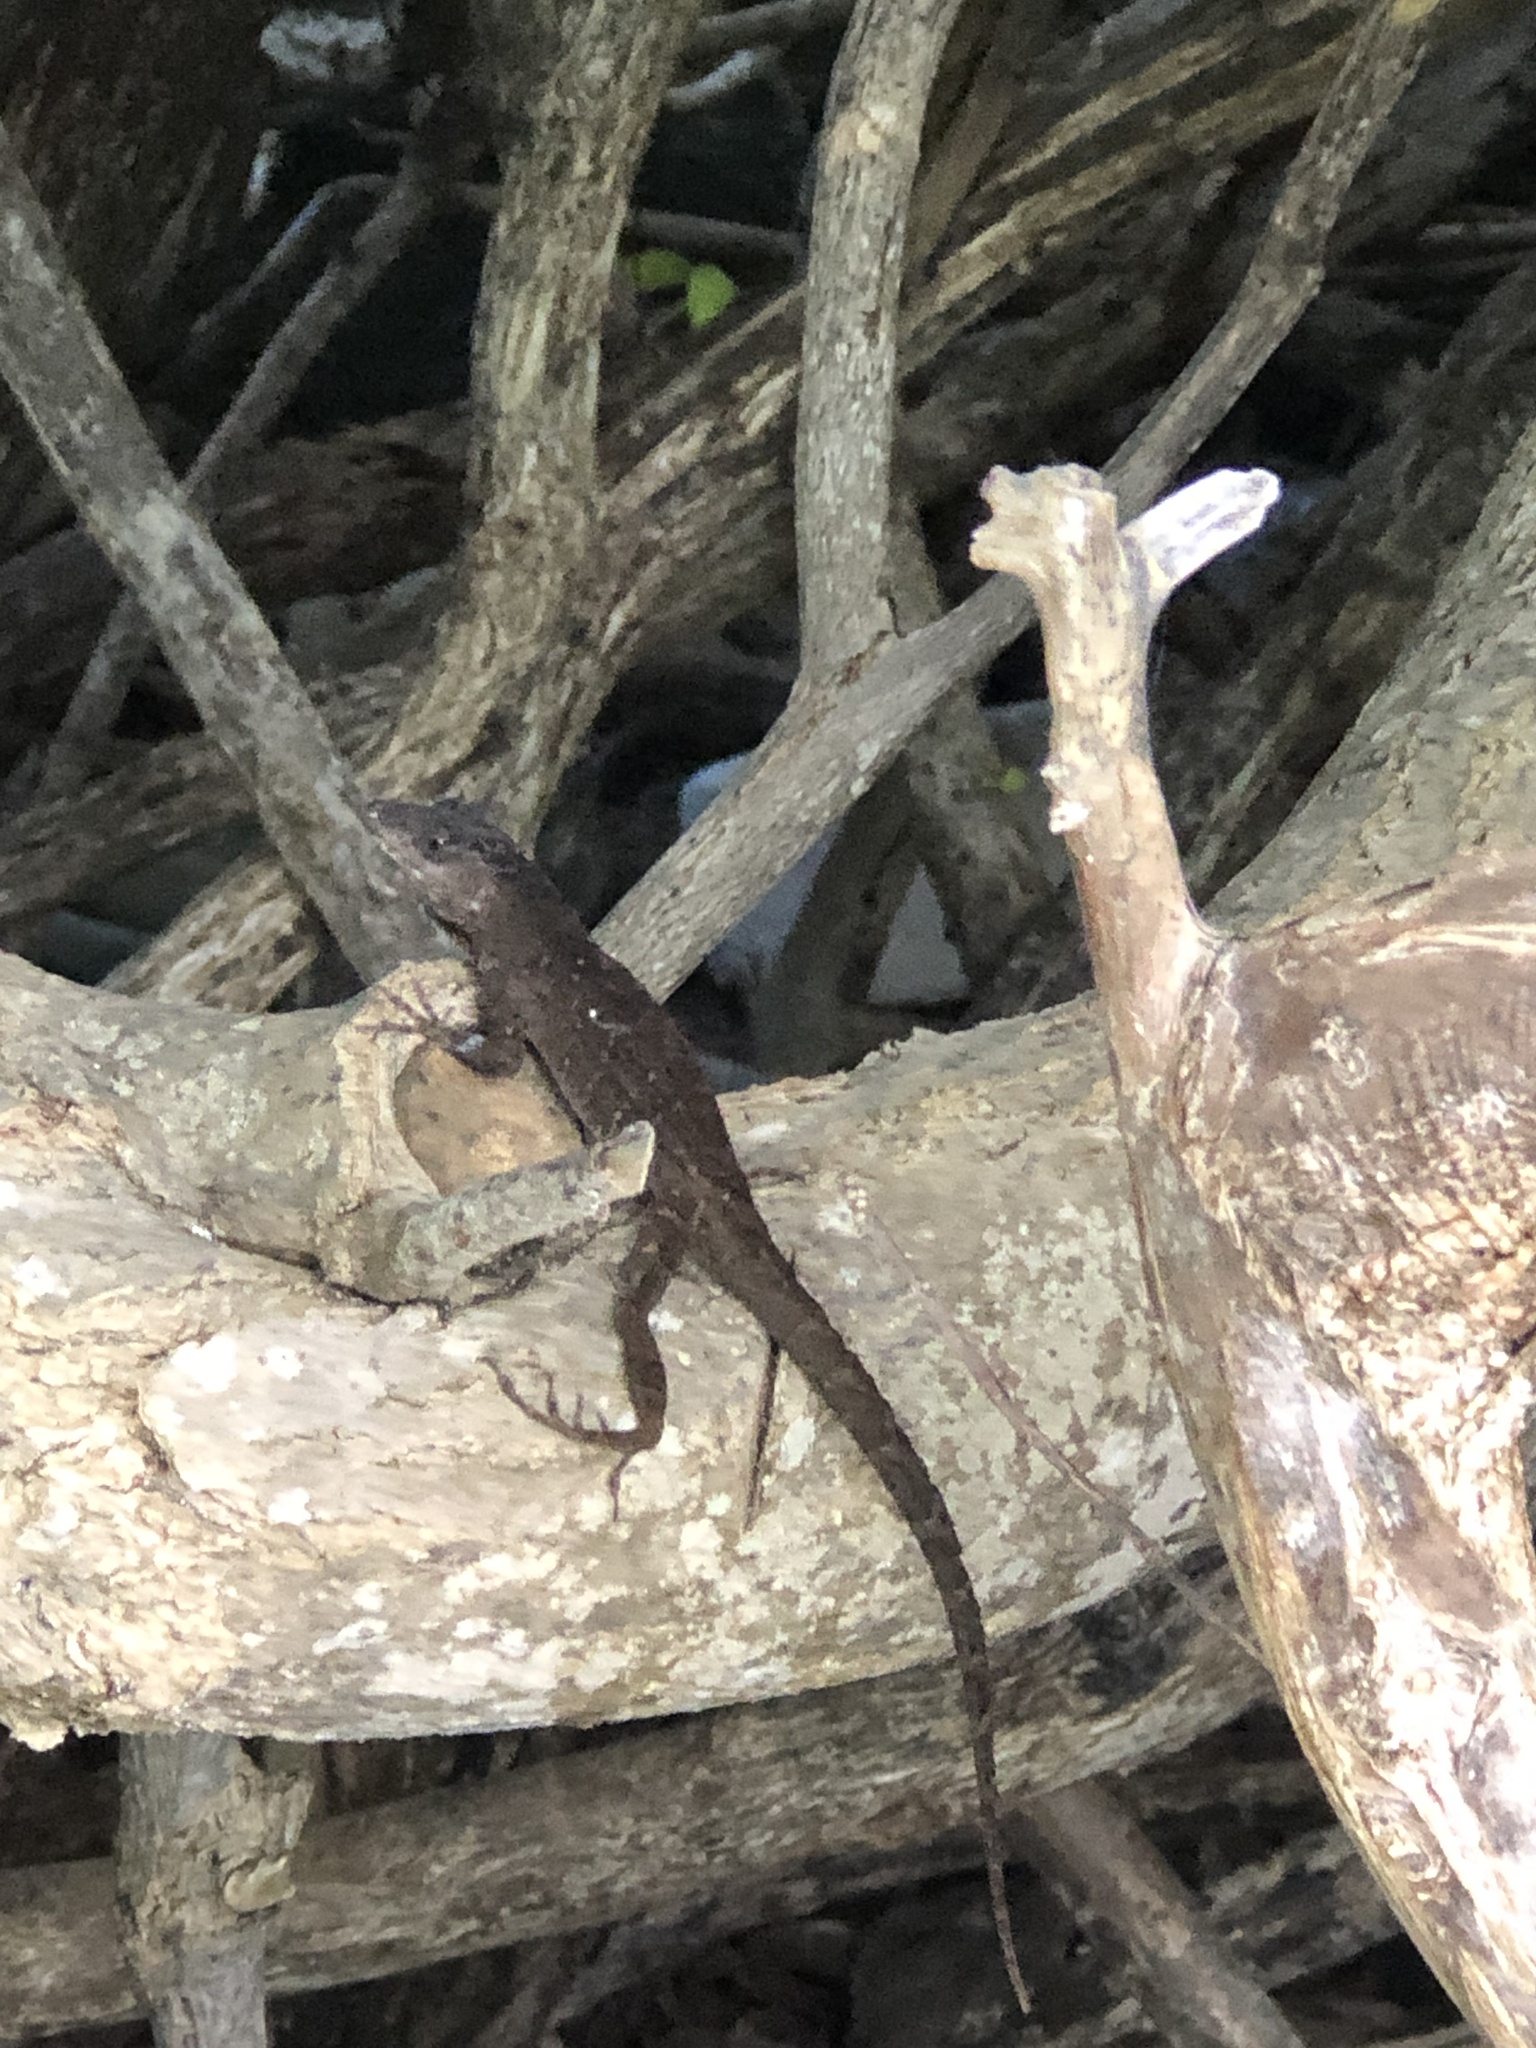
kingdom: Animalia
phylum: Chordata
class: Squamata
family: Dactyloidae
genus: Anolis
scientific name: Anolis sagrei
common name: Brown anole
